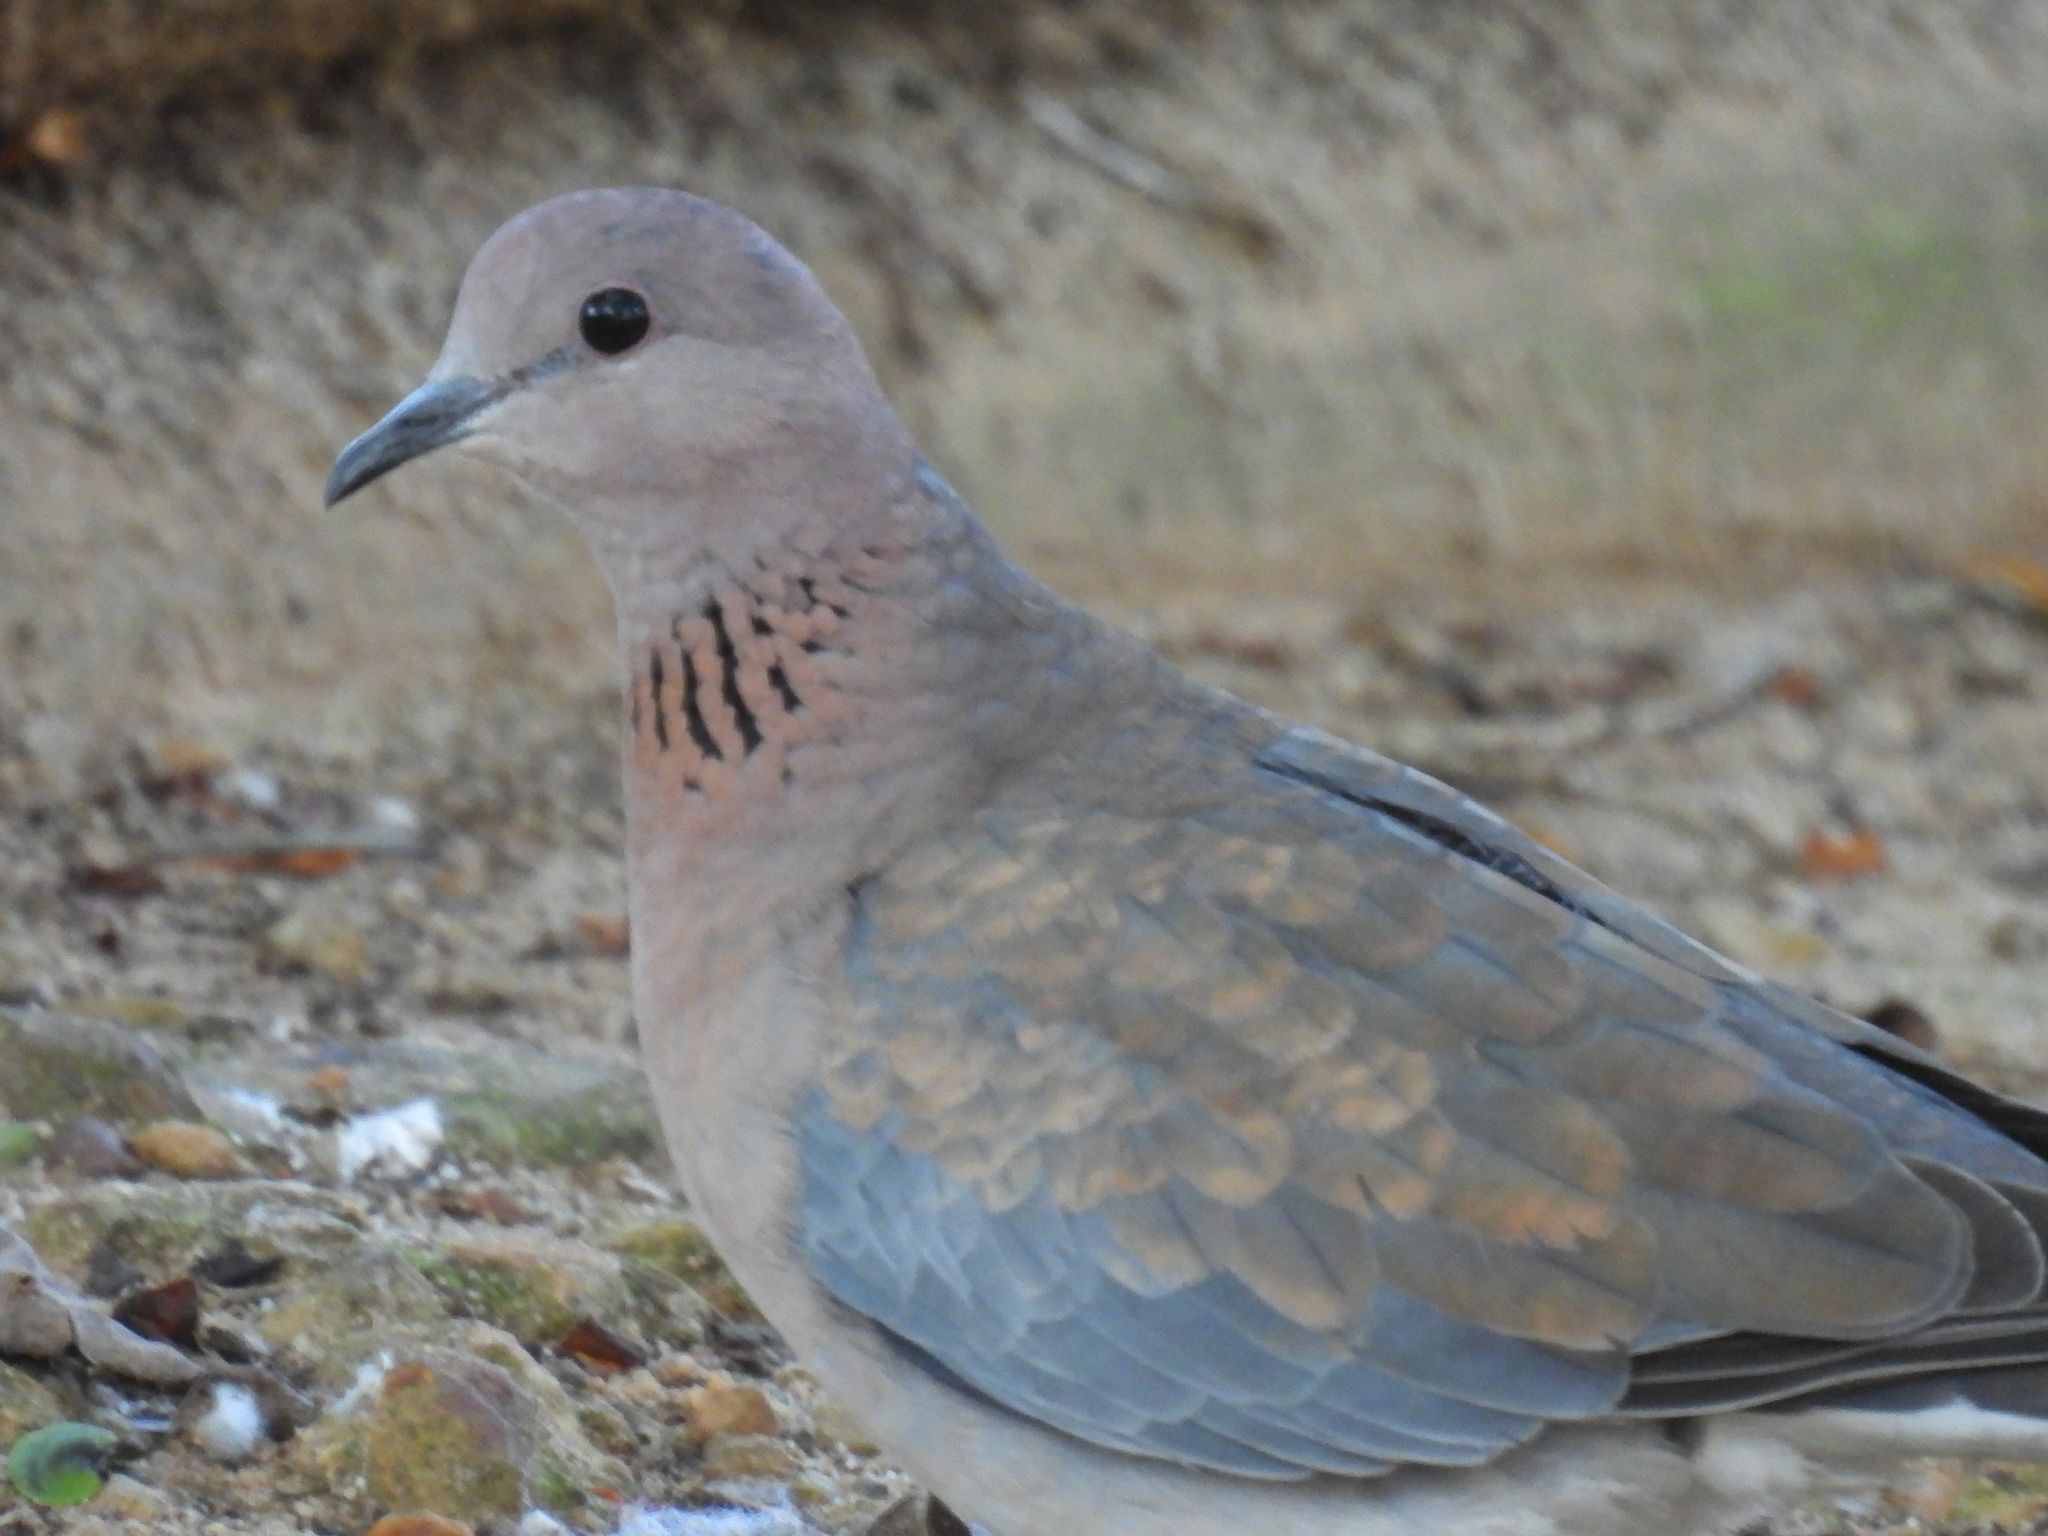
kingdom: Animalia
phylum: Chordata
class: Aves
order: Columbiformes
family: Columbidae
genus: Spilopelia
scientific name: Spilopelia senegalensis
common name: Laughing dove
